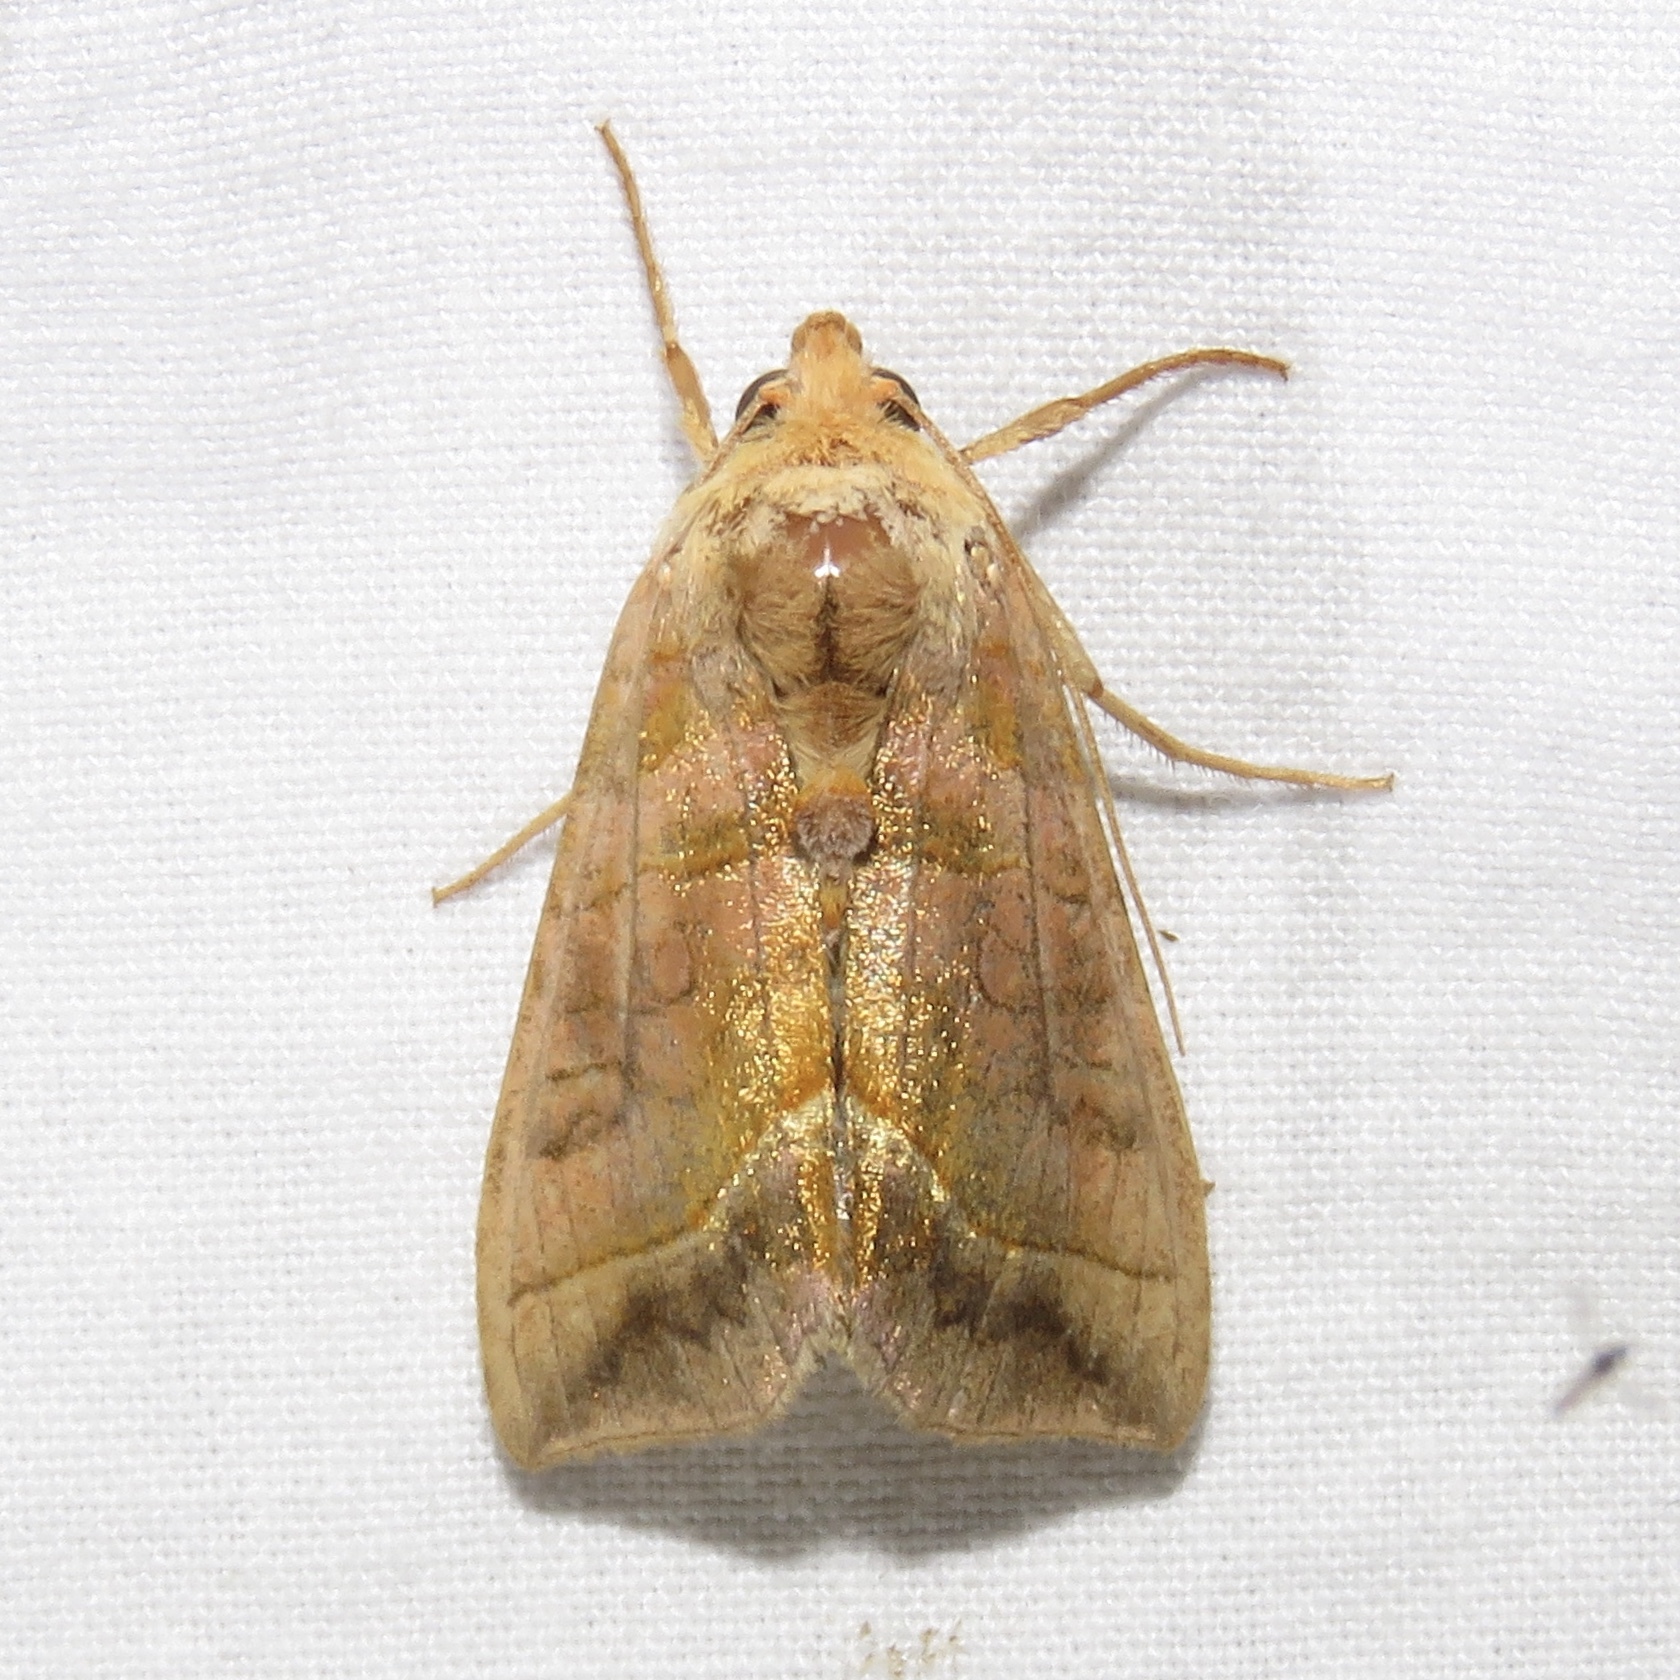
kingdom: Animalia
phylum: Arthropoda
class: Insecta
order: Lepidoptera
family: Noctuidae
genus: Diachrysia
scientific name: Diachrysia aereoides
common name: Dark-spotted looper moth
